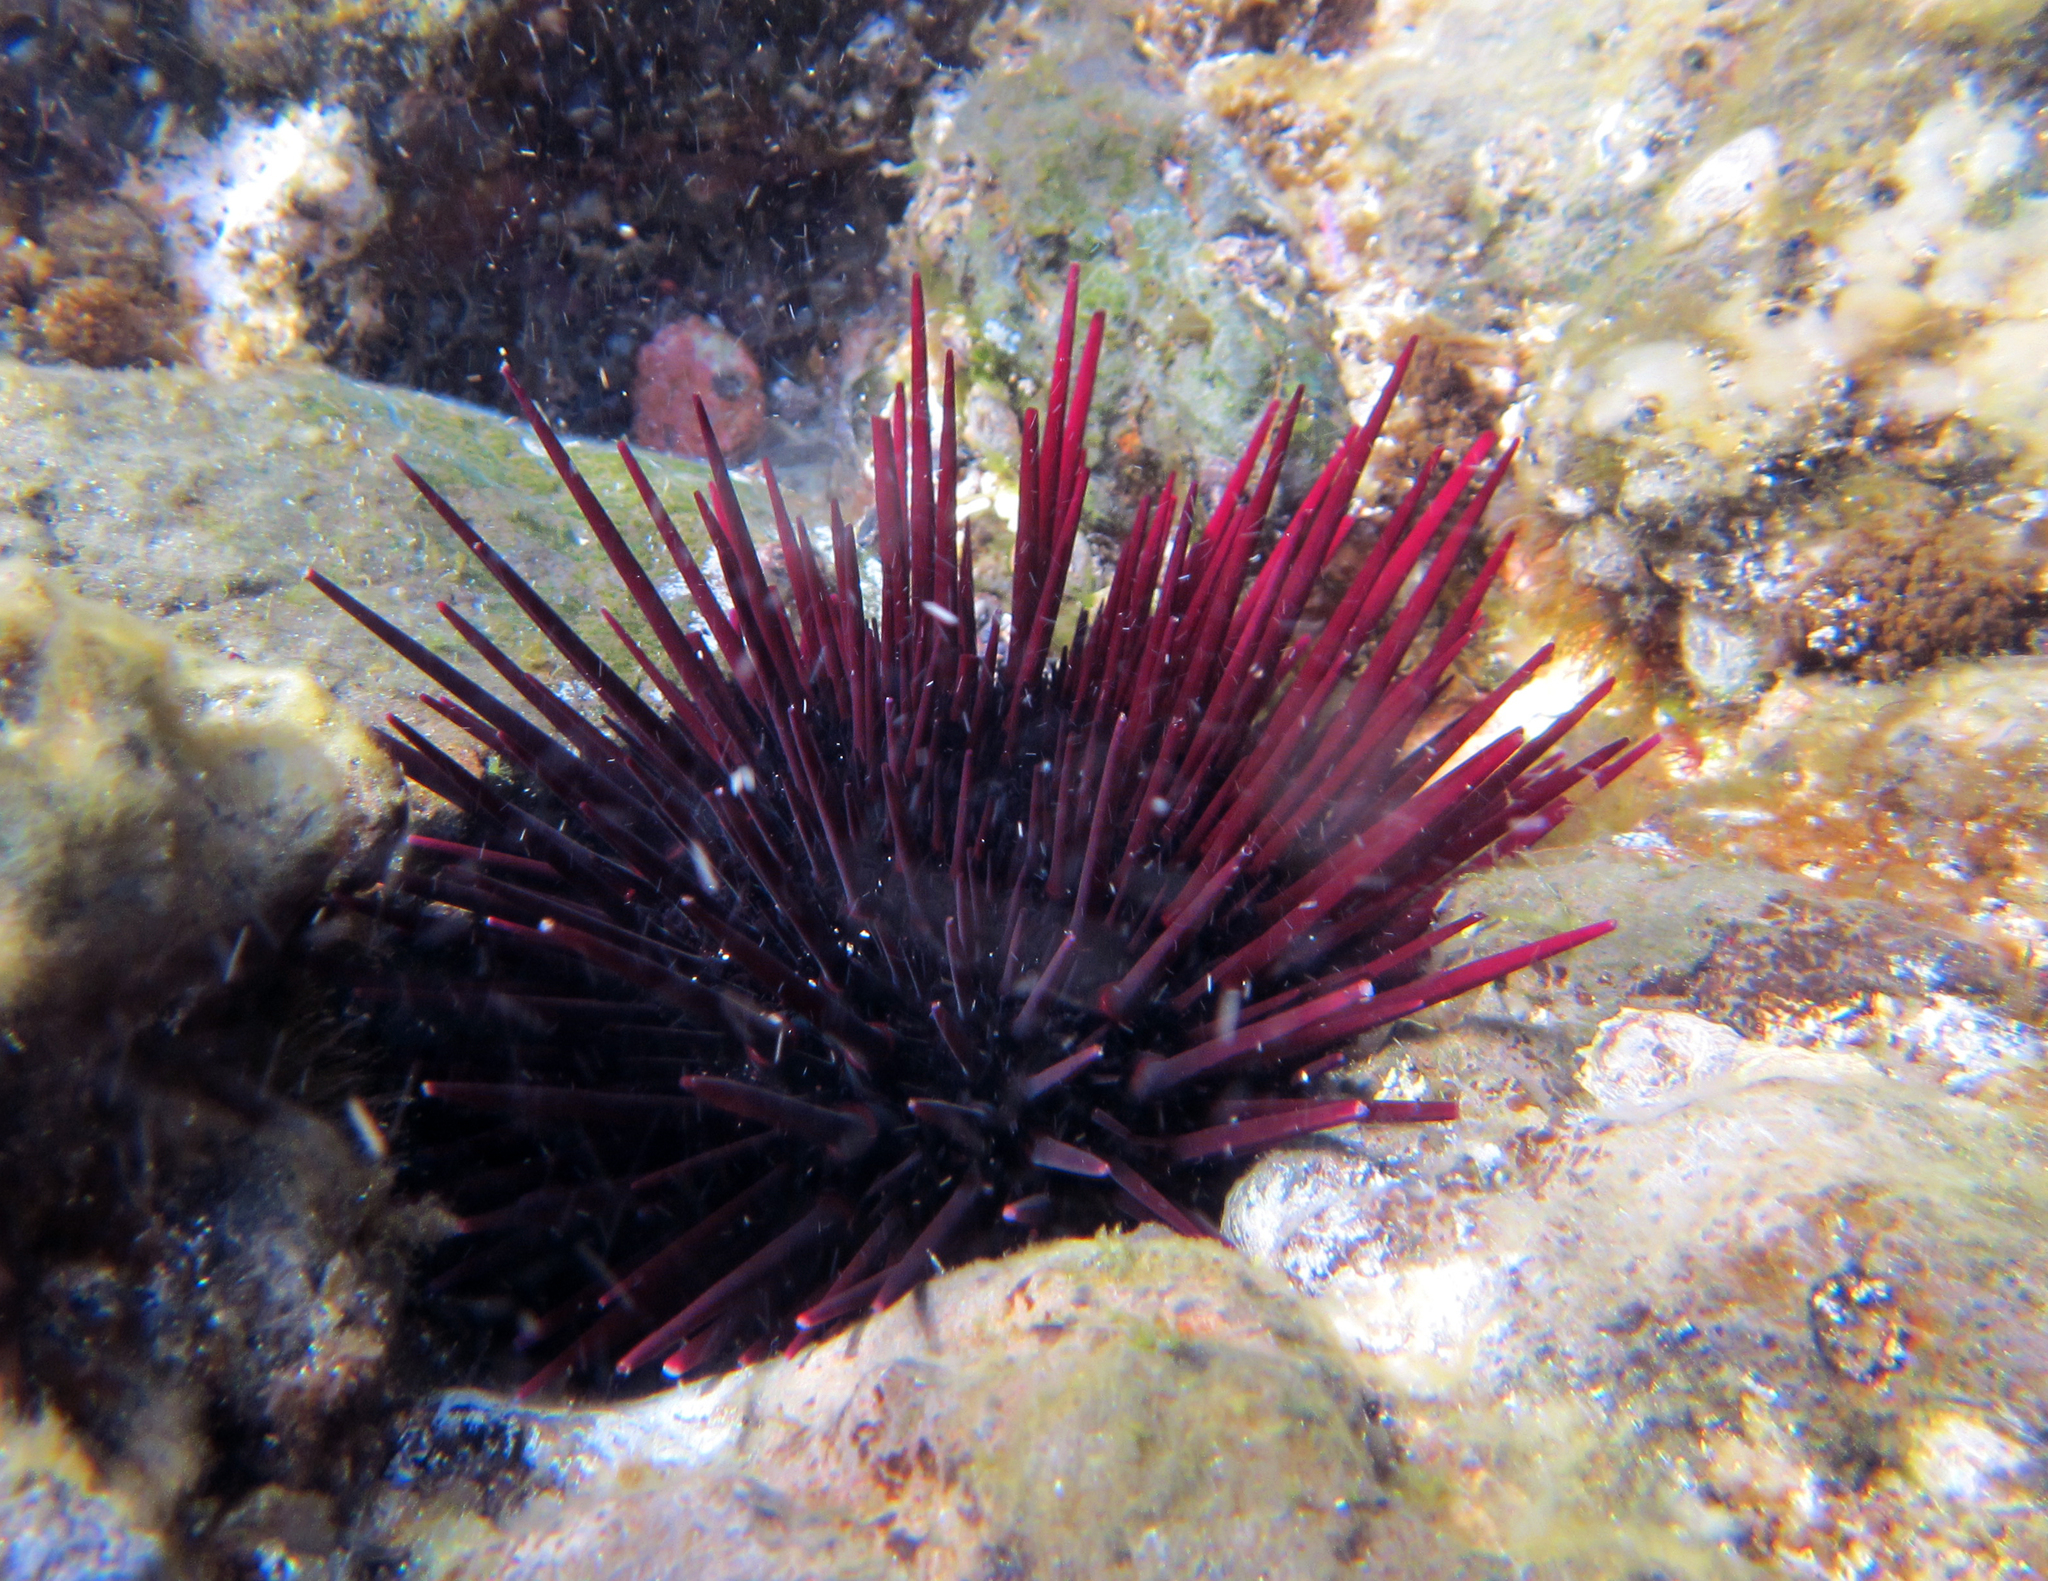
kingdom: Animalia
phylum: Echinodermata
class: Echinoidea
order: Camarodonta
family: Echinometridae
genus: Echinometra
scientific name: Echinometra insularis
